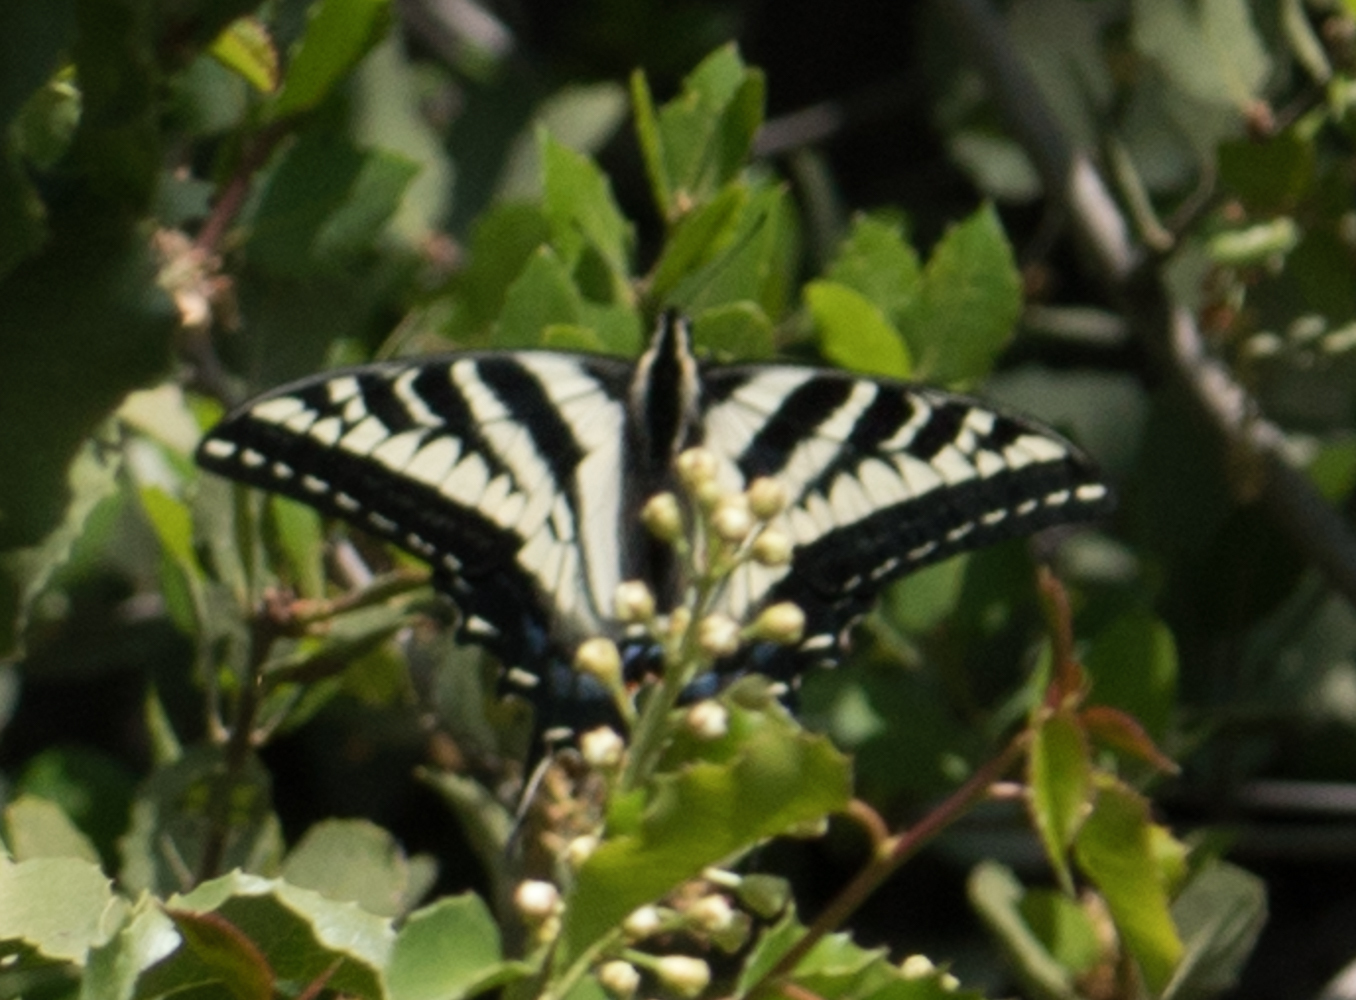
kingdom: Animalia
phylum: Arthropoda
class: Insecta
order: Lepidoptera
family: Papilionidae
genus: Papilio
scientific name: Papilio eurymedon
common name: Pale tiger swallowtail
